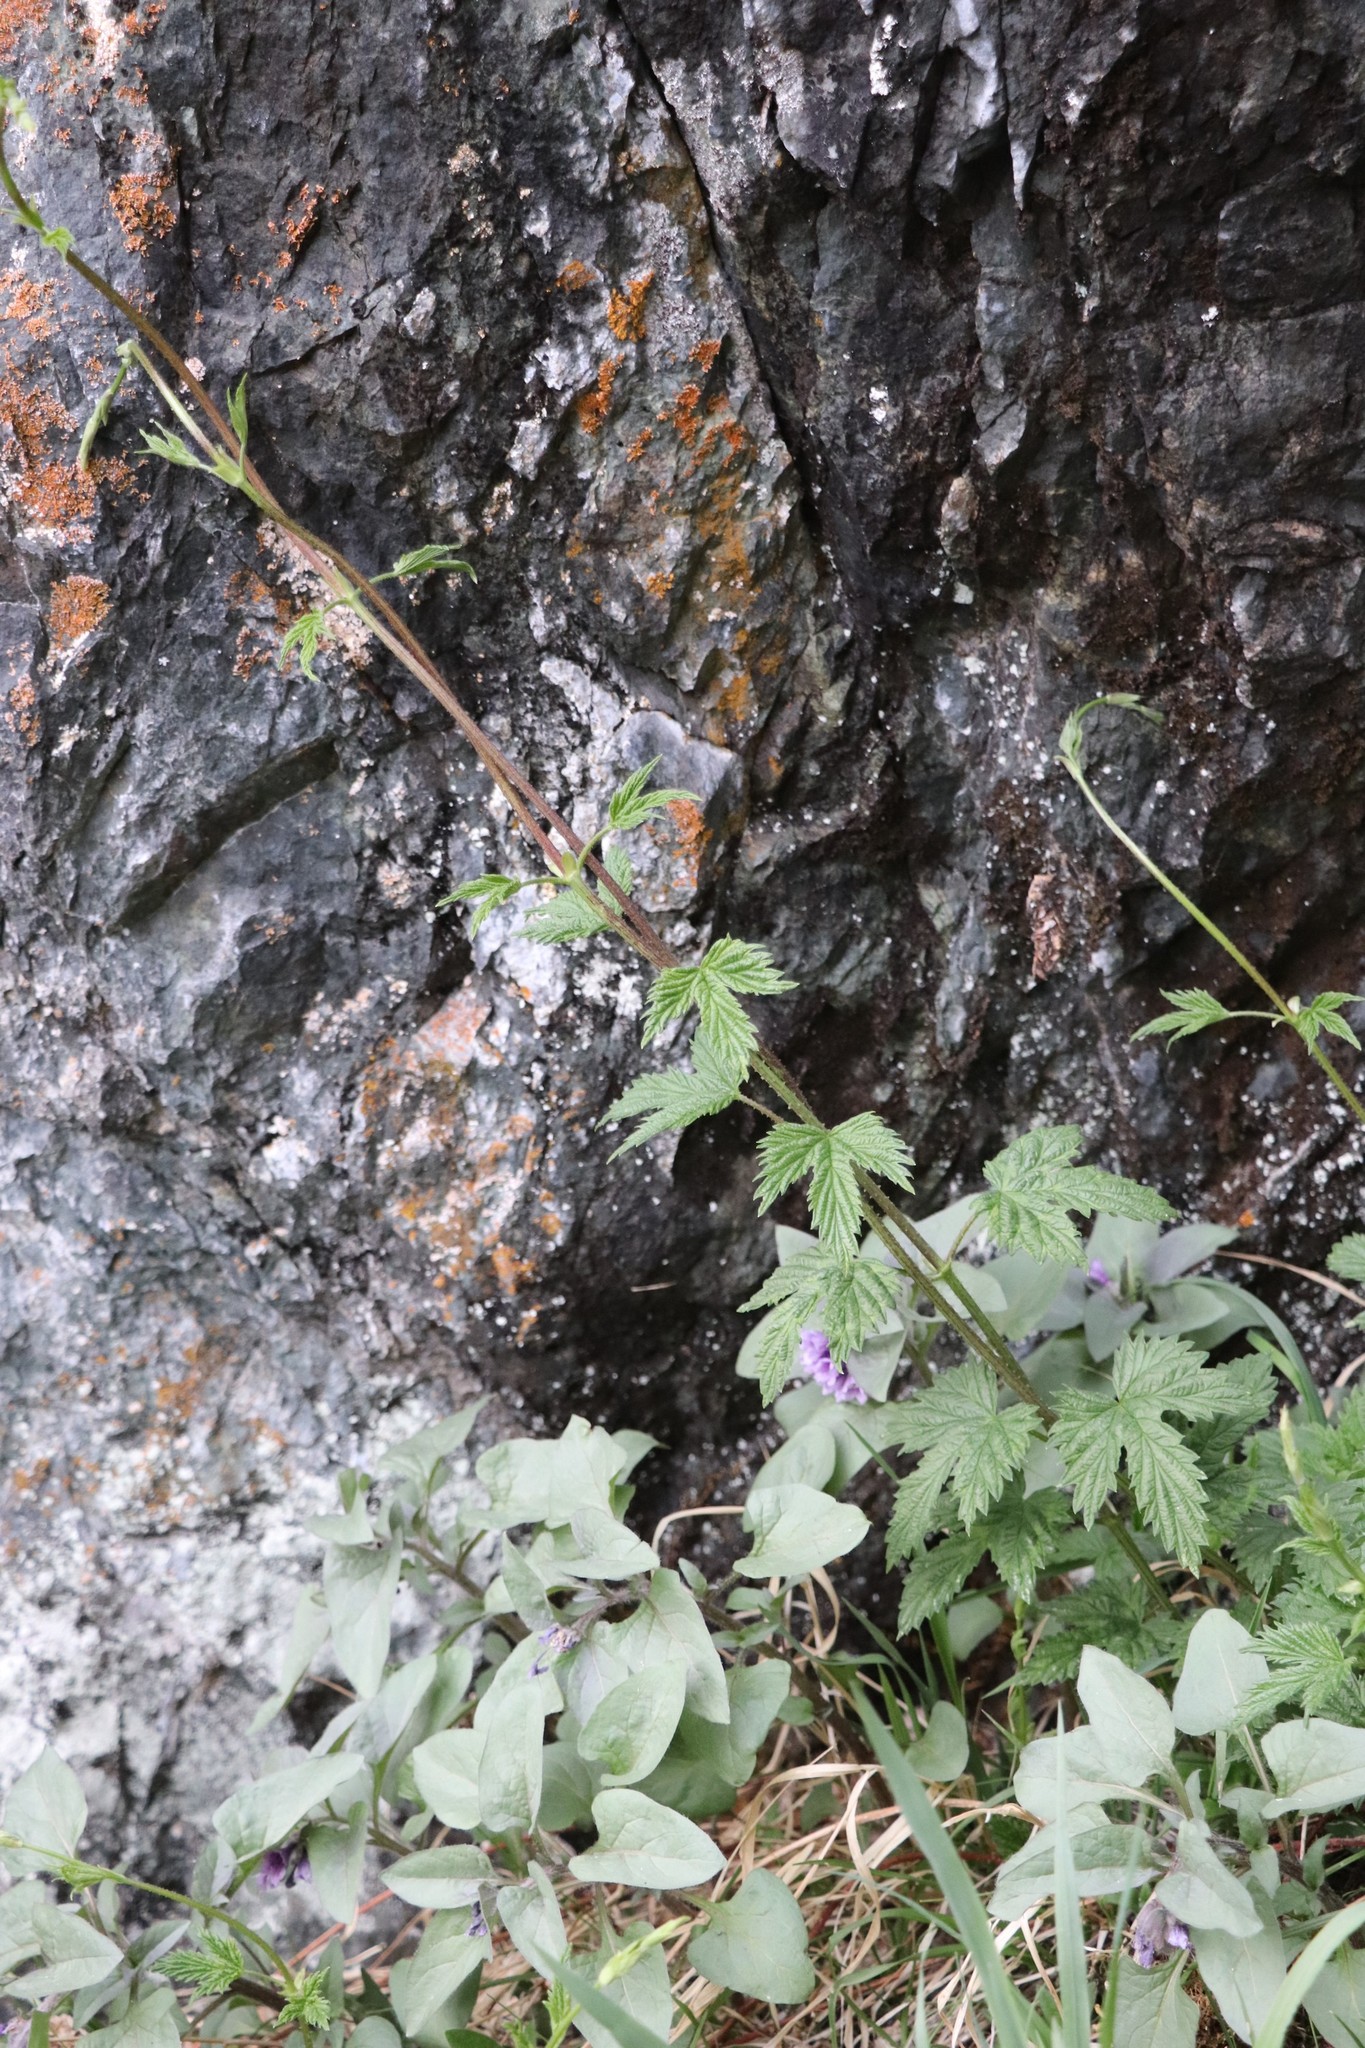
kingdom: Plantae
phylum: Tracheophyta
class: Magnoliopsida
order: Rosales
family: Cannabaceae
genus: Humulus
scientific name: Humulus lupulus
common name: Hop
